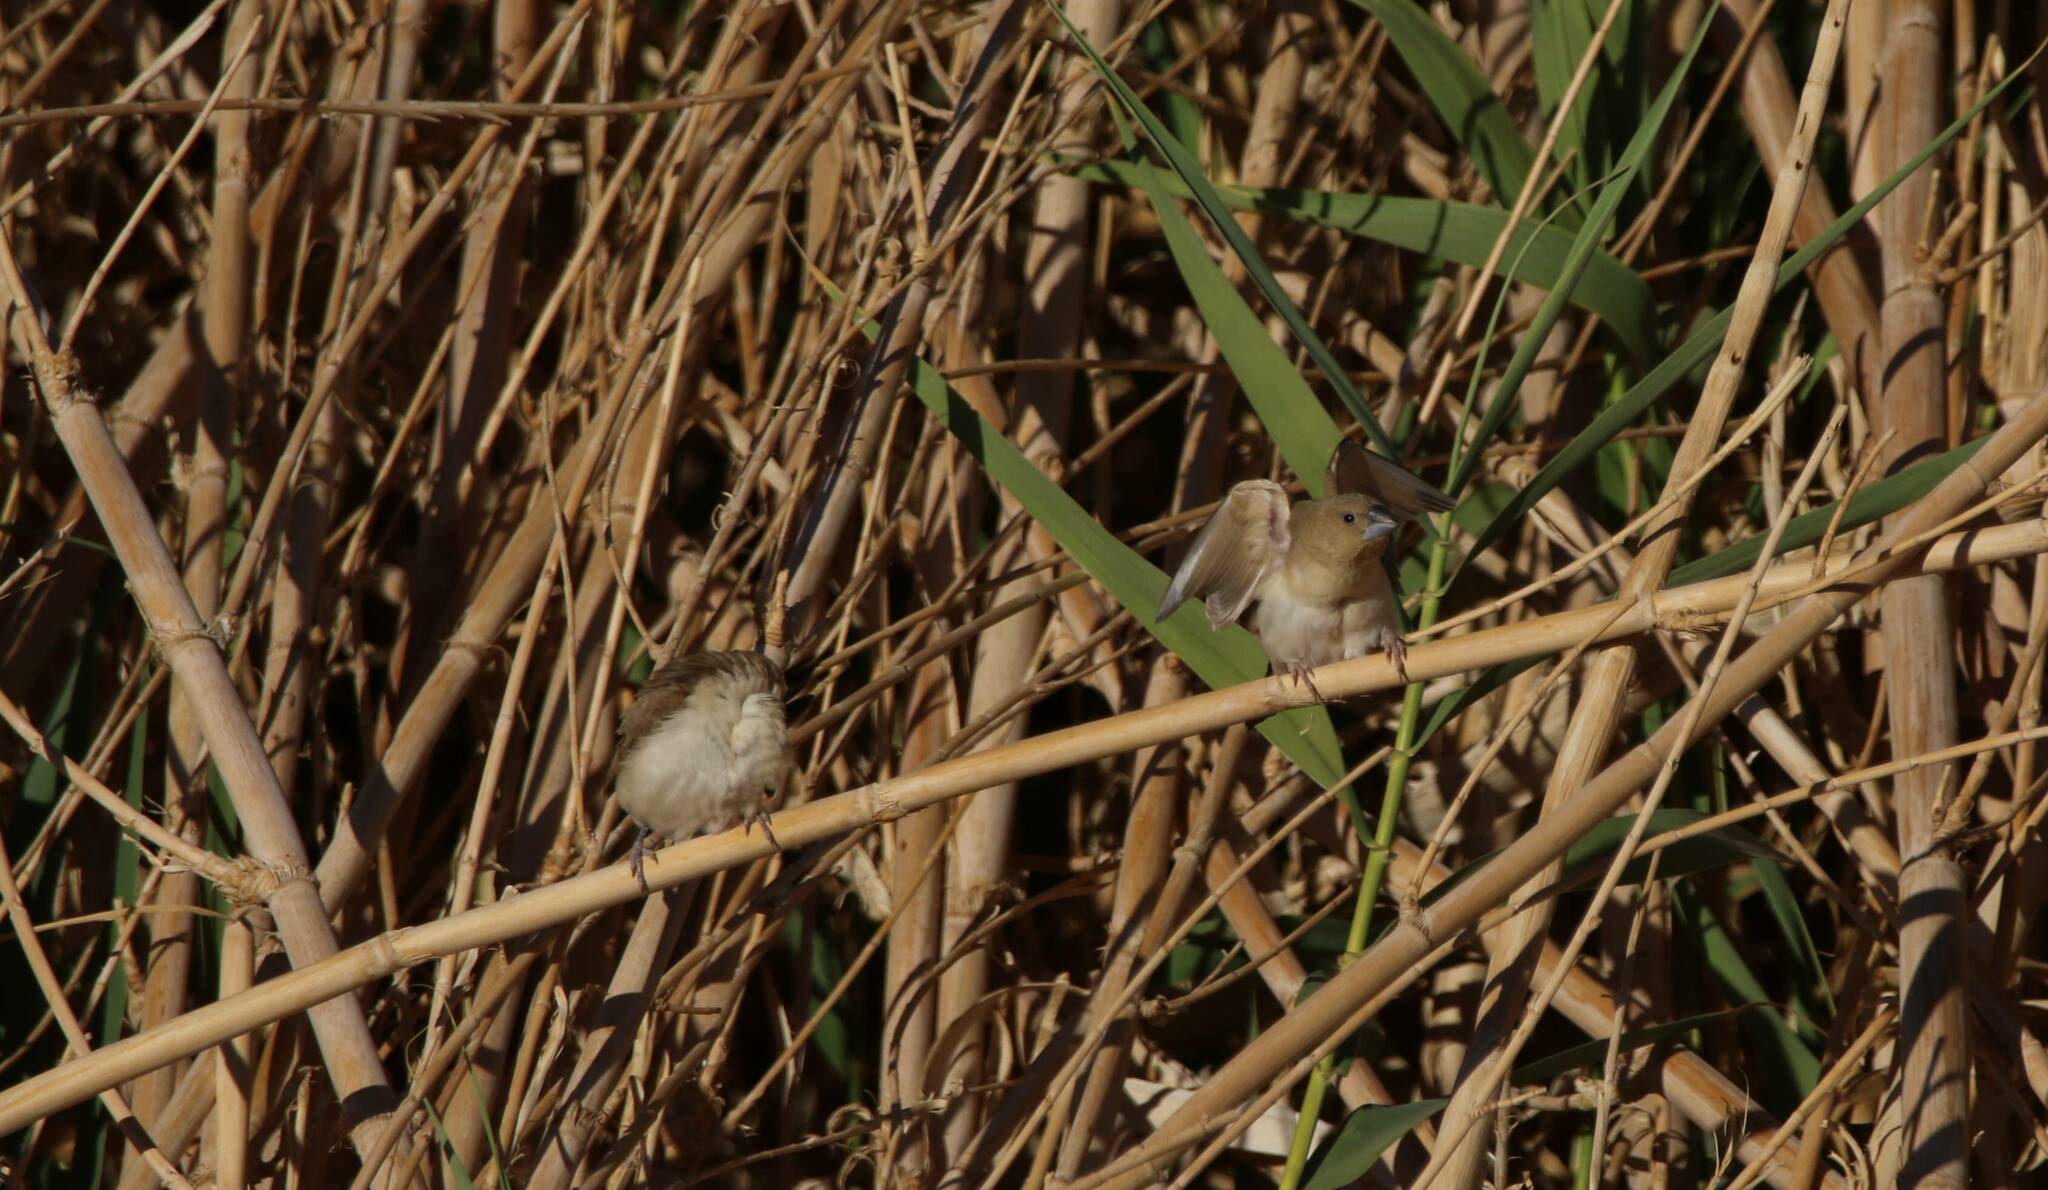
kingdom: Animalia
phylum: Chordata
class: Aves
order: Passeriformes
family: Estrildidae
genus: Euodice
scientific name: Euodice cantans
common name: African silverbill
